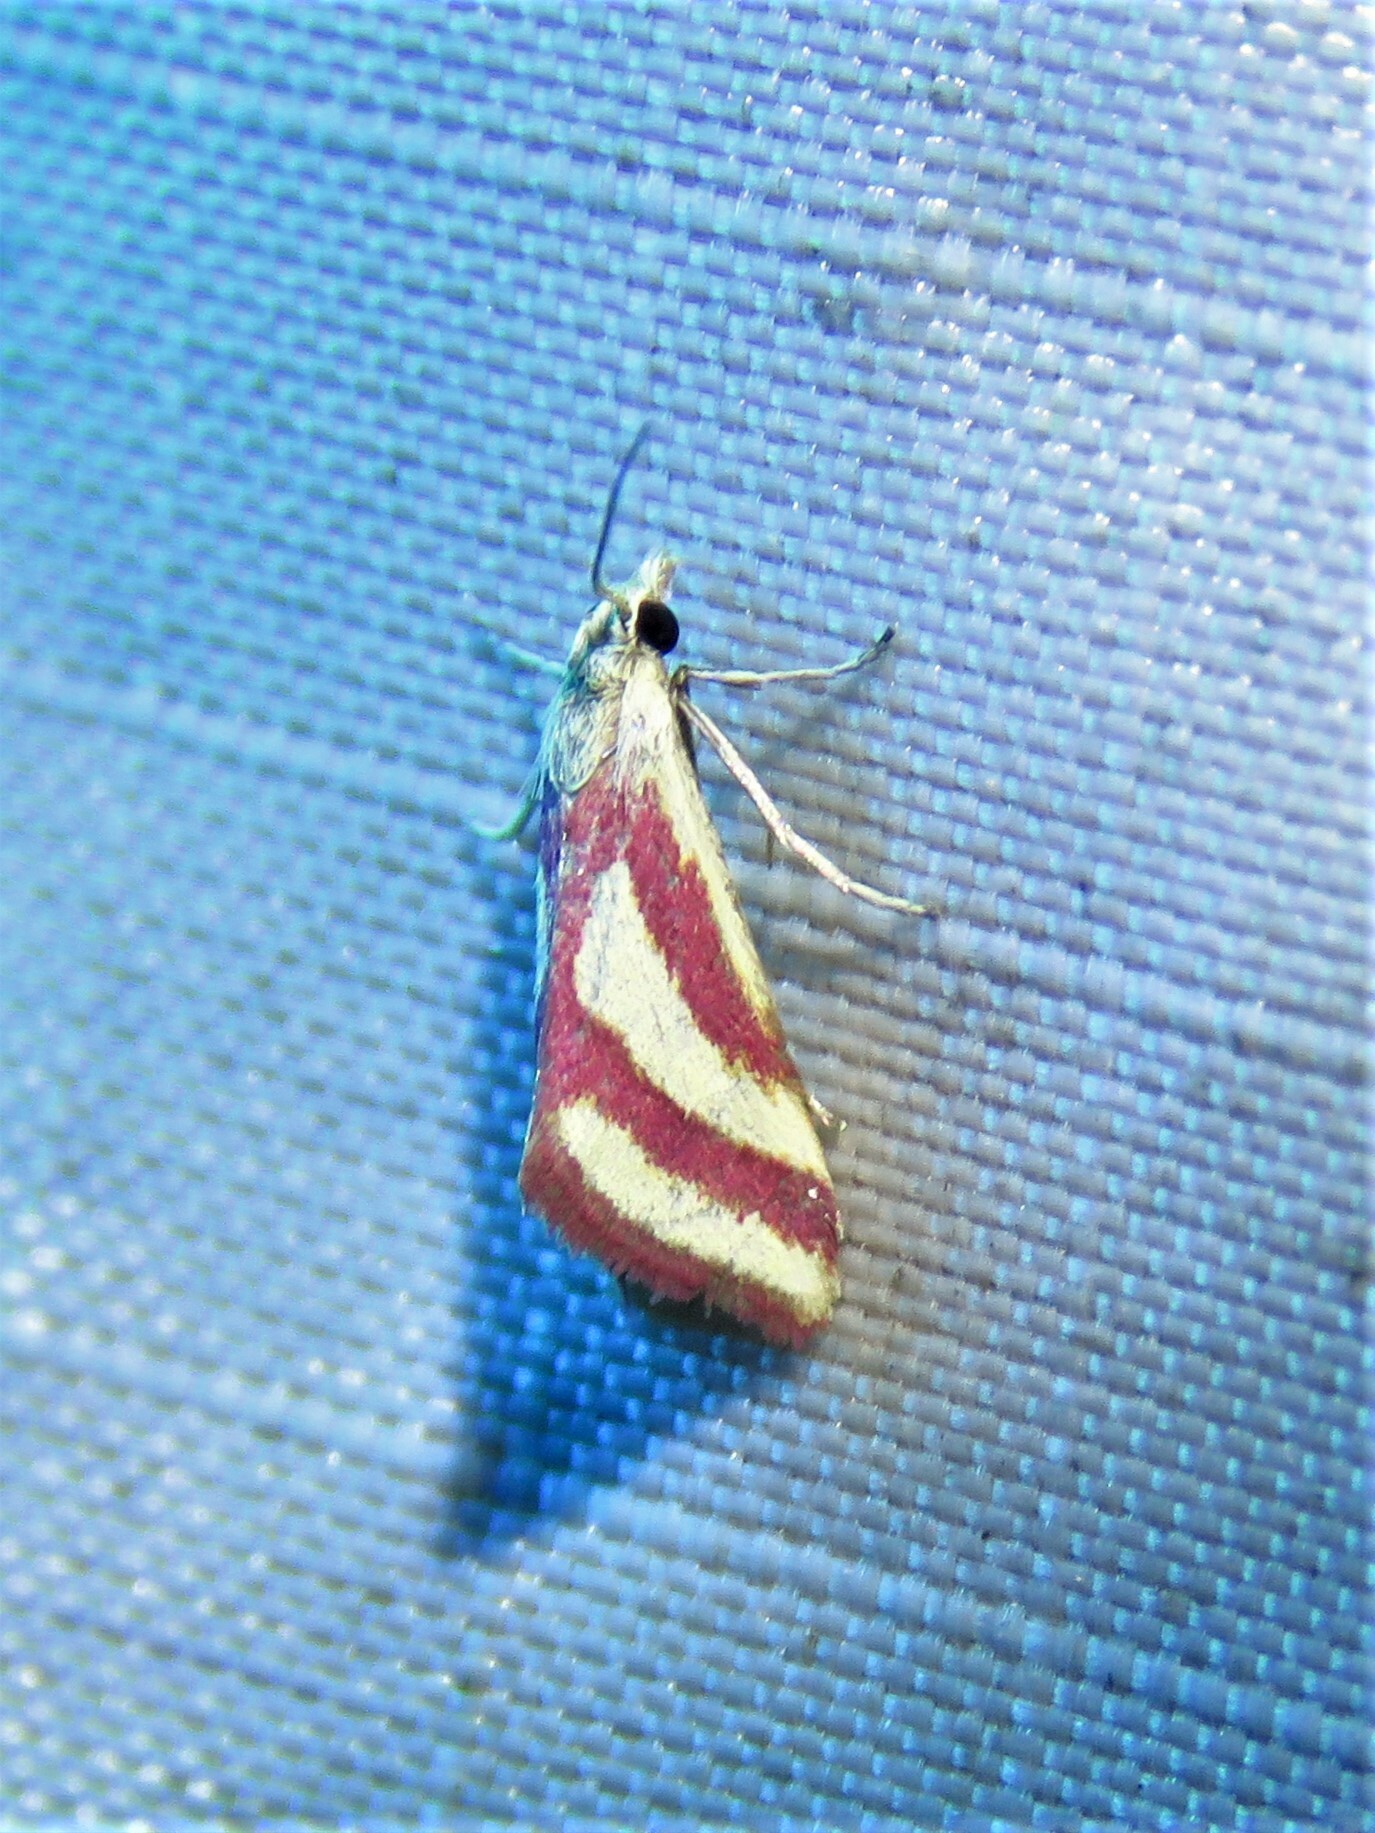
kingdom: Animalia
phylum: Arthropoda
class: Insecta
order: Lepidoptera
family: Crambidae
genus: Microtheoris
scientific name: Microtheoris vibicalis
